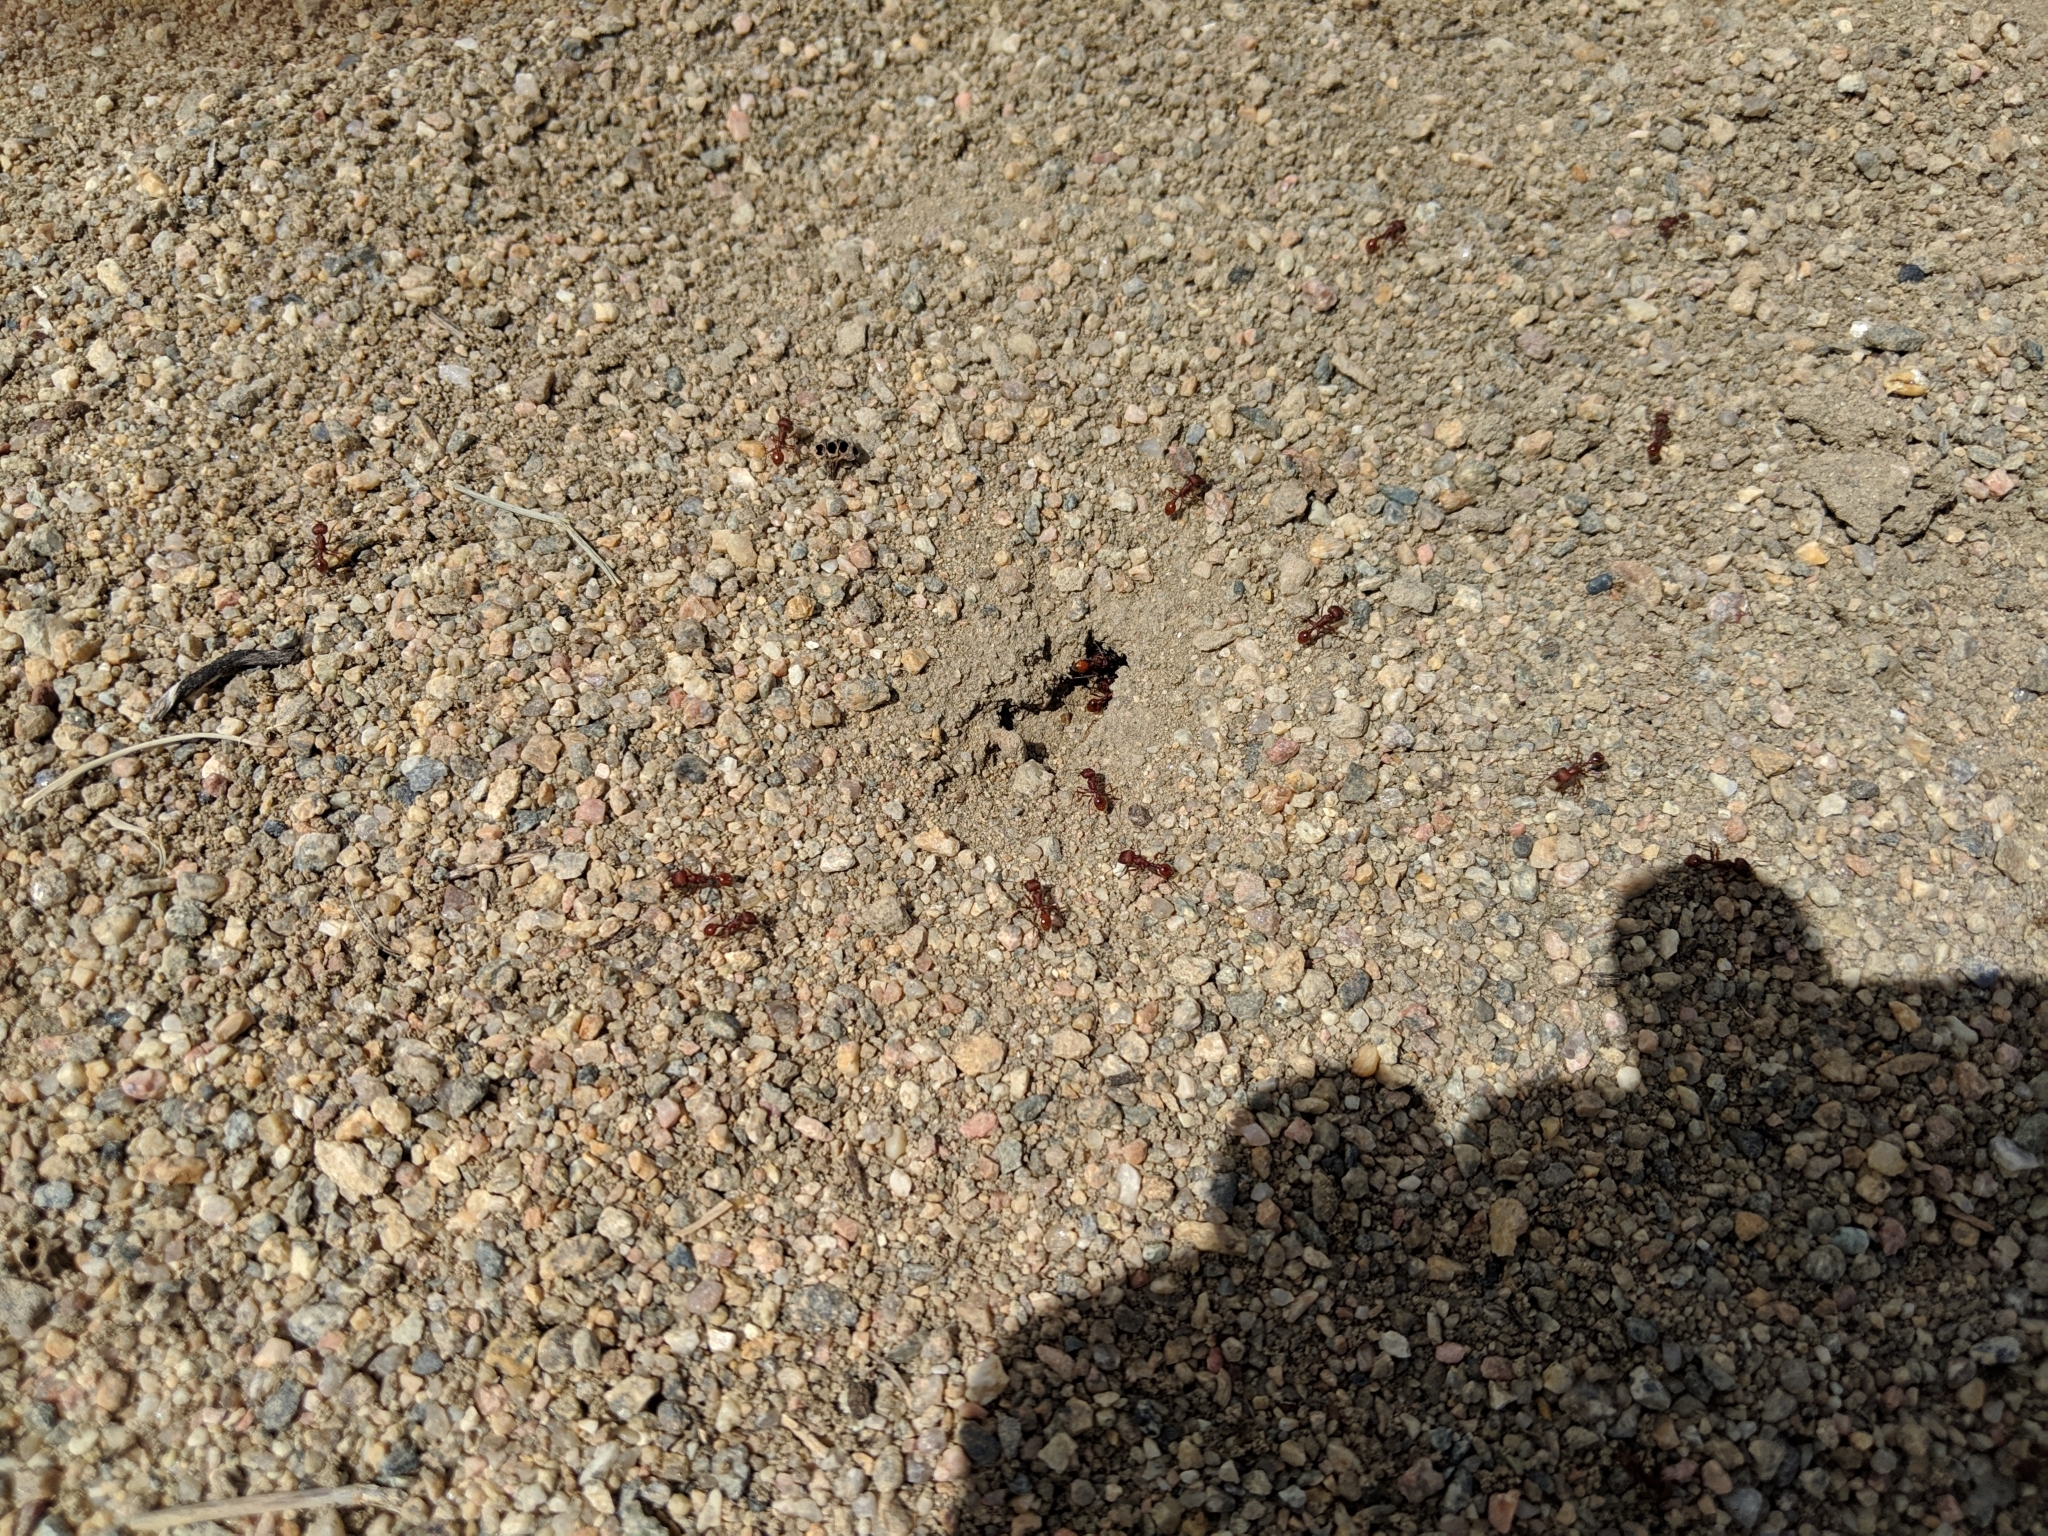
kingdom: Animalia
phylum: Arthropoda
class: Insecta
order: Hymenoptera
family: Formicidae
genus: Pogonomyrmex
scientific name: Pogonomyrmex occidentalis
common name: Western harvester ant
